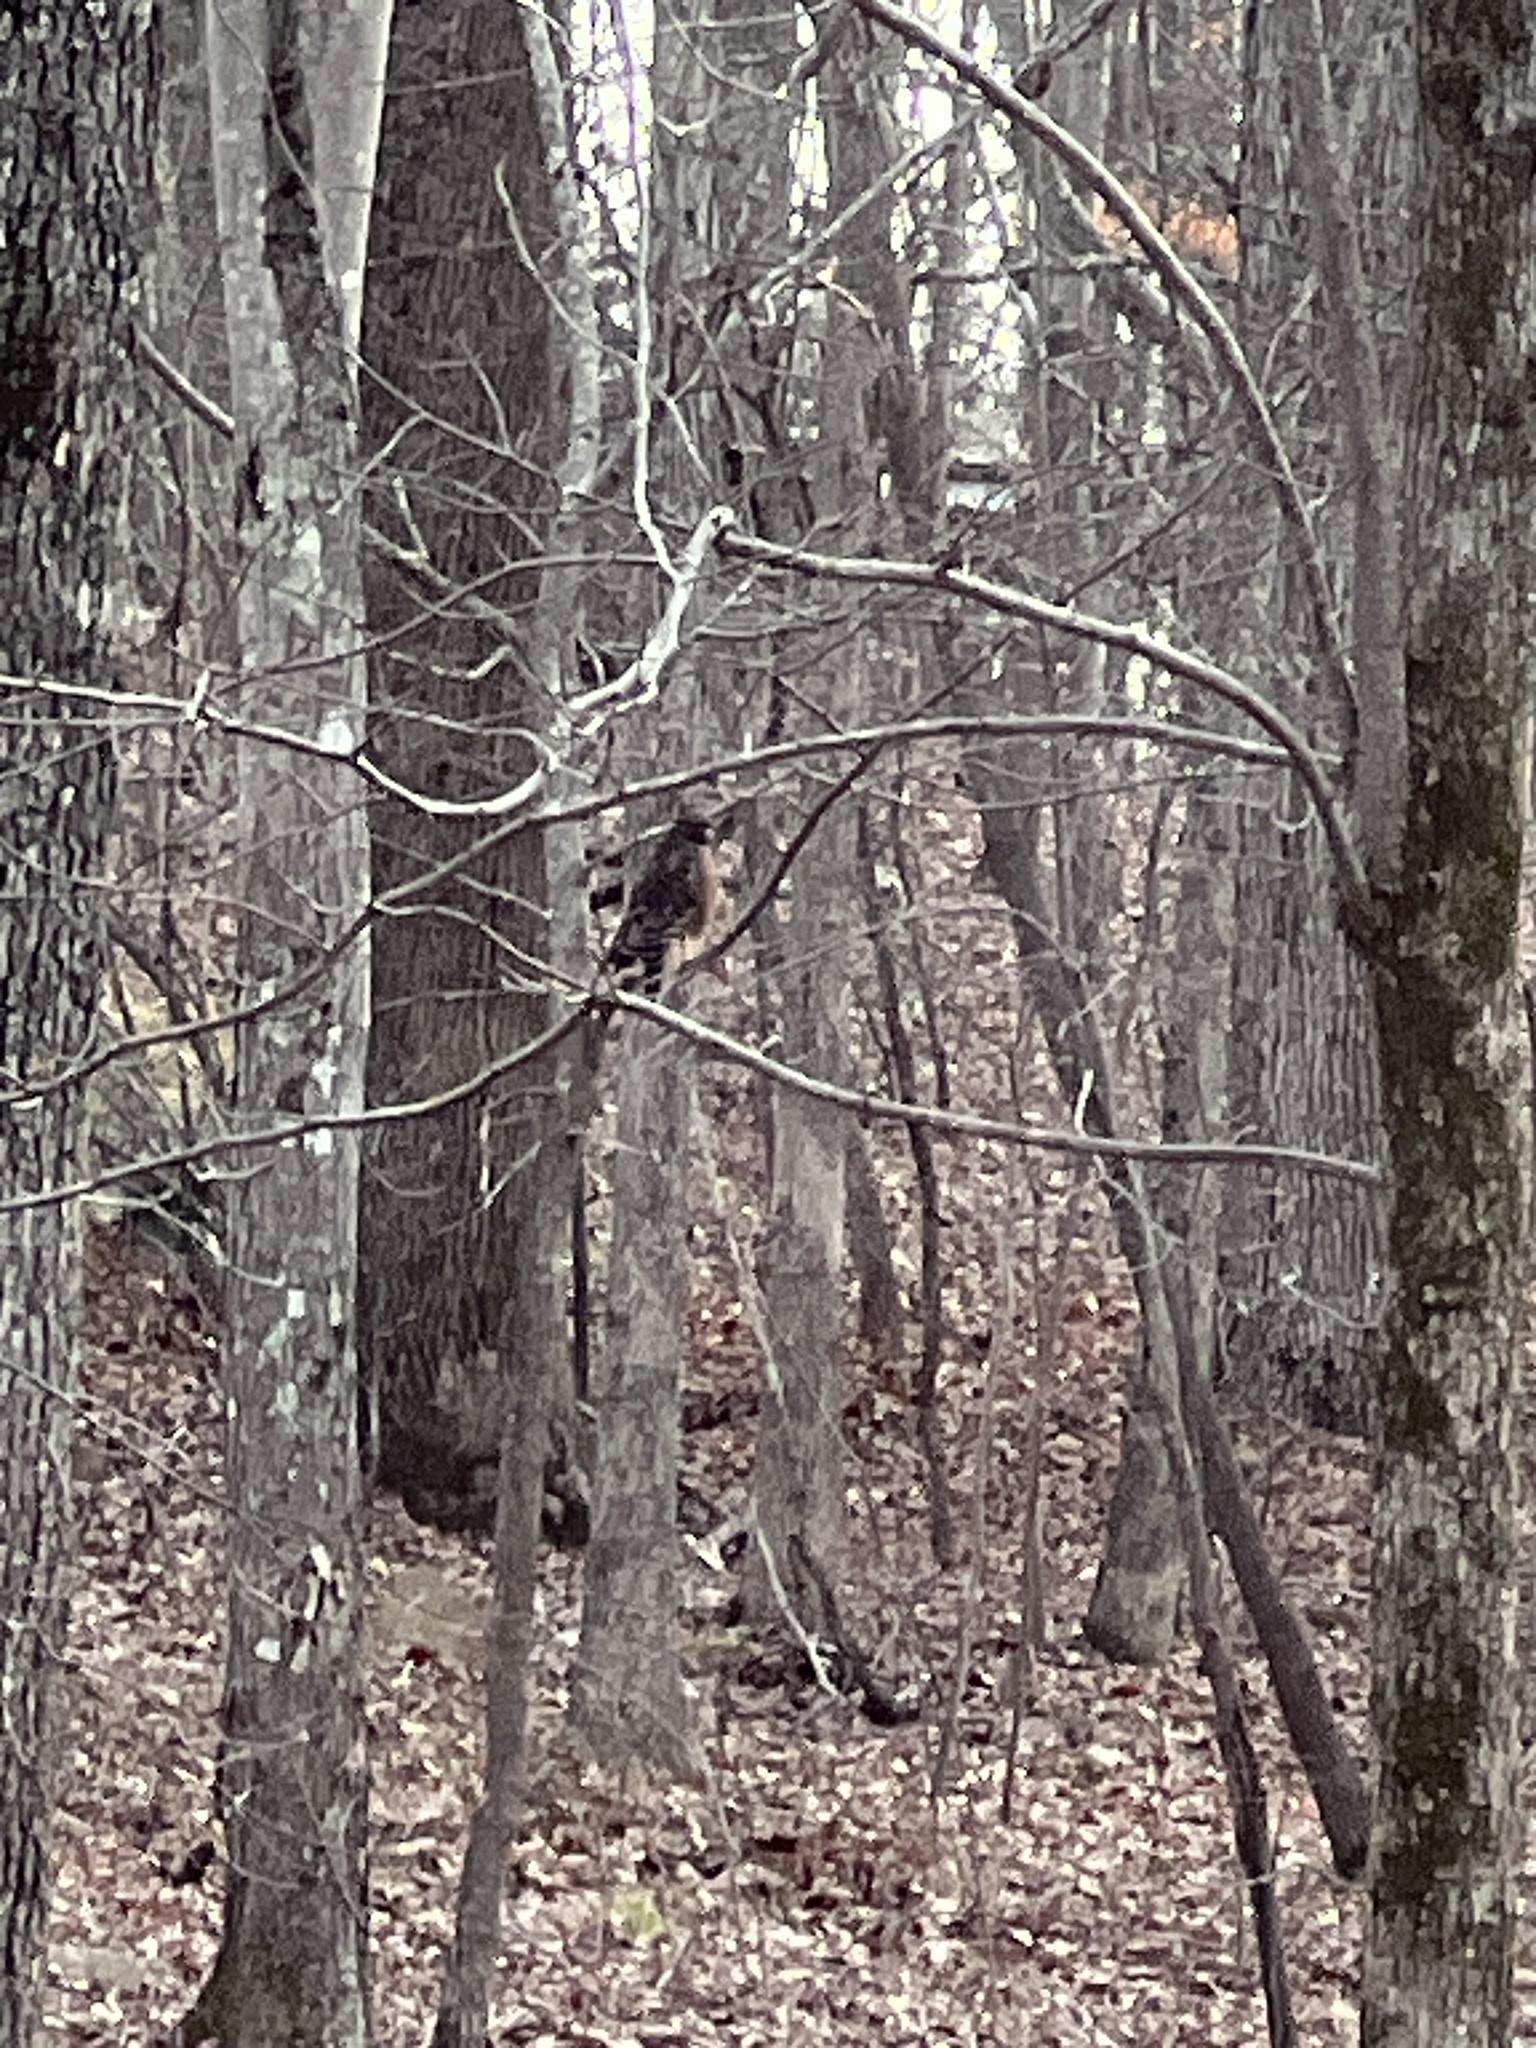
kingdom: Animalia
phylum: Chordata
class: Aves
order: Accipitriformes
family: Accipitridae
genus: Buteo
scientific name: Buteo lineatus
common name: Red-shouldered hawk
